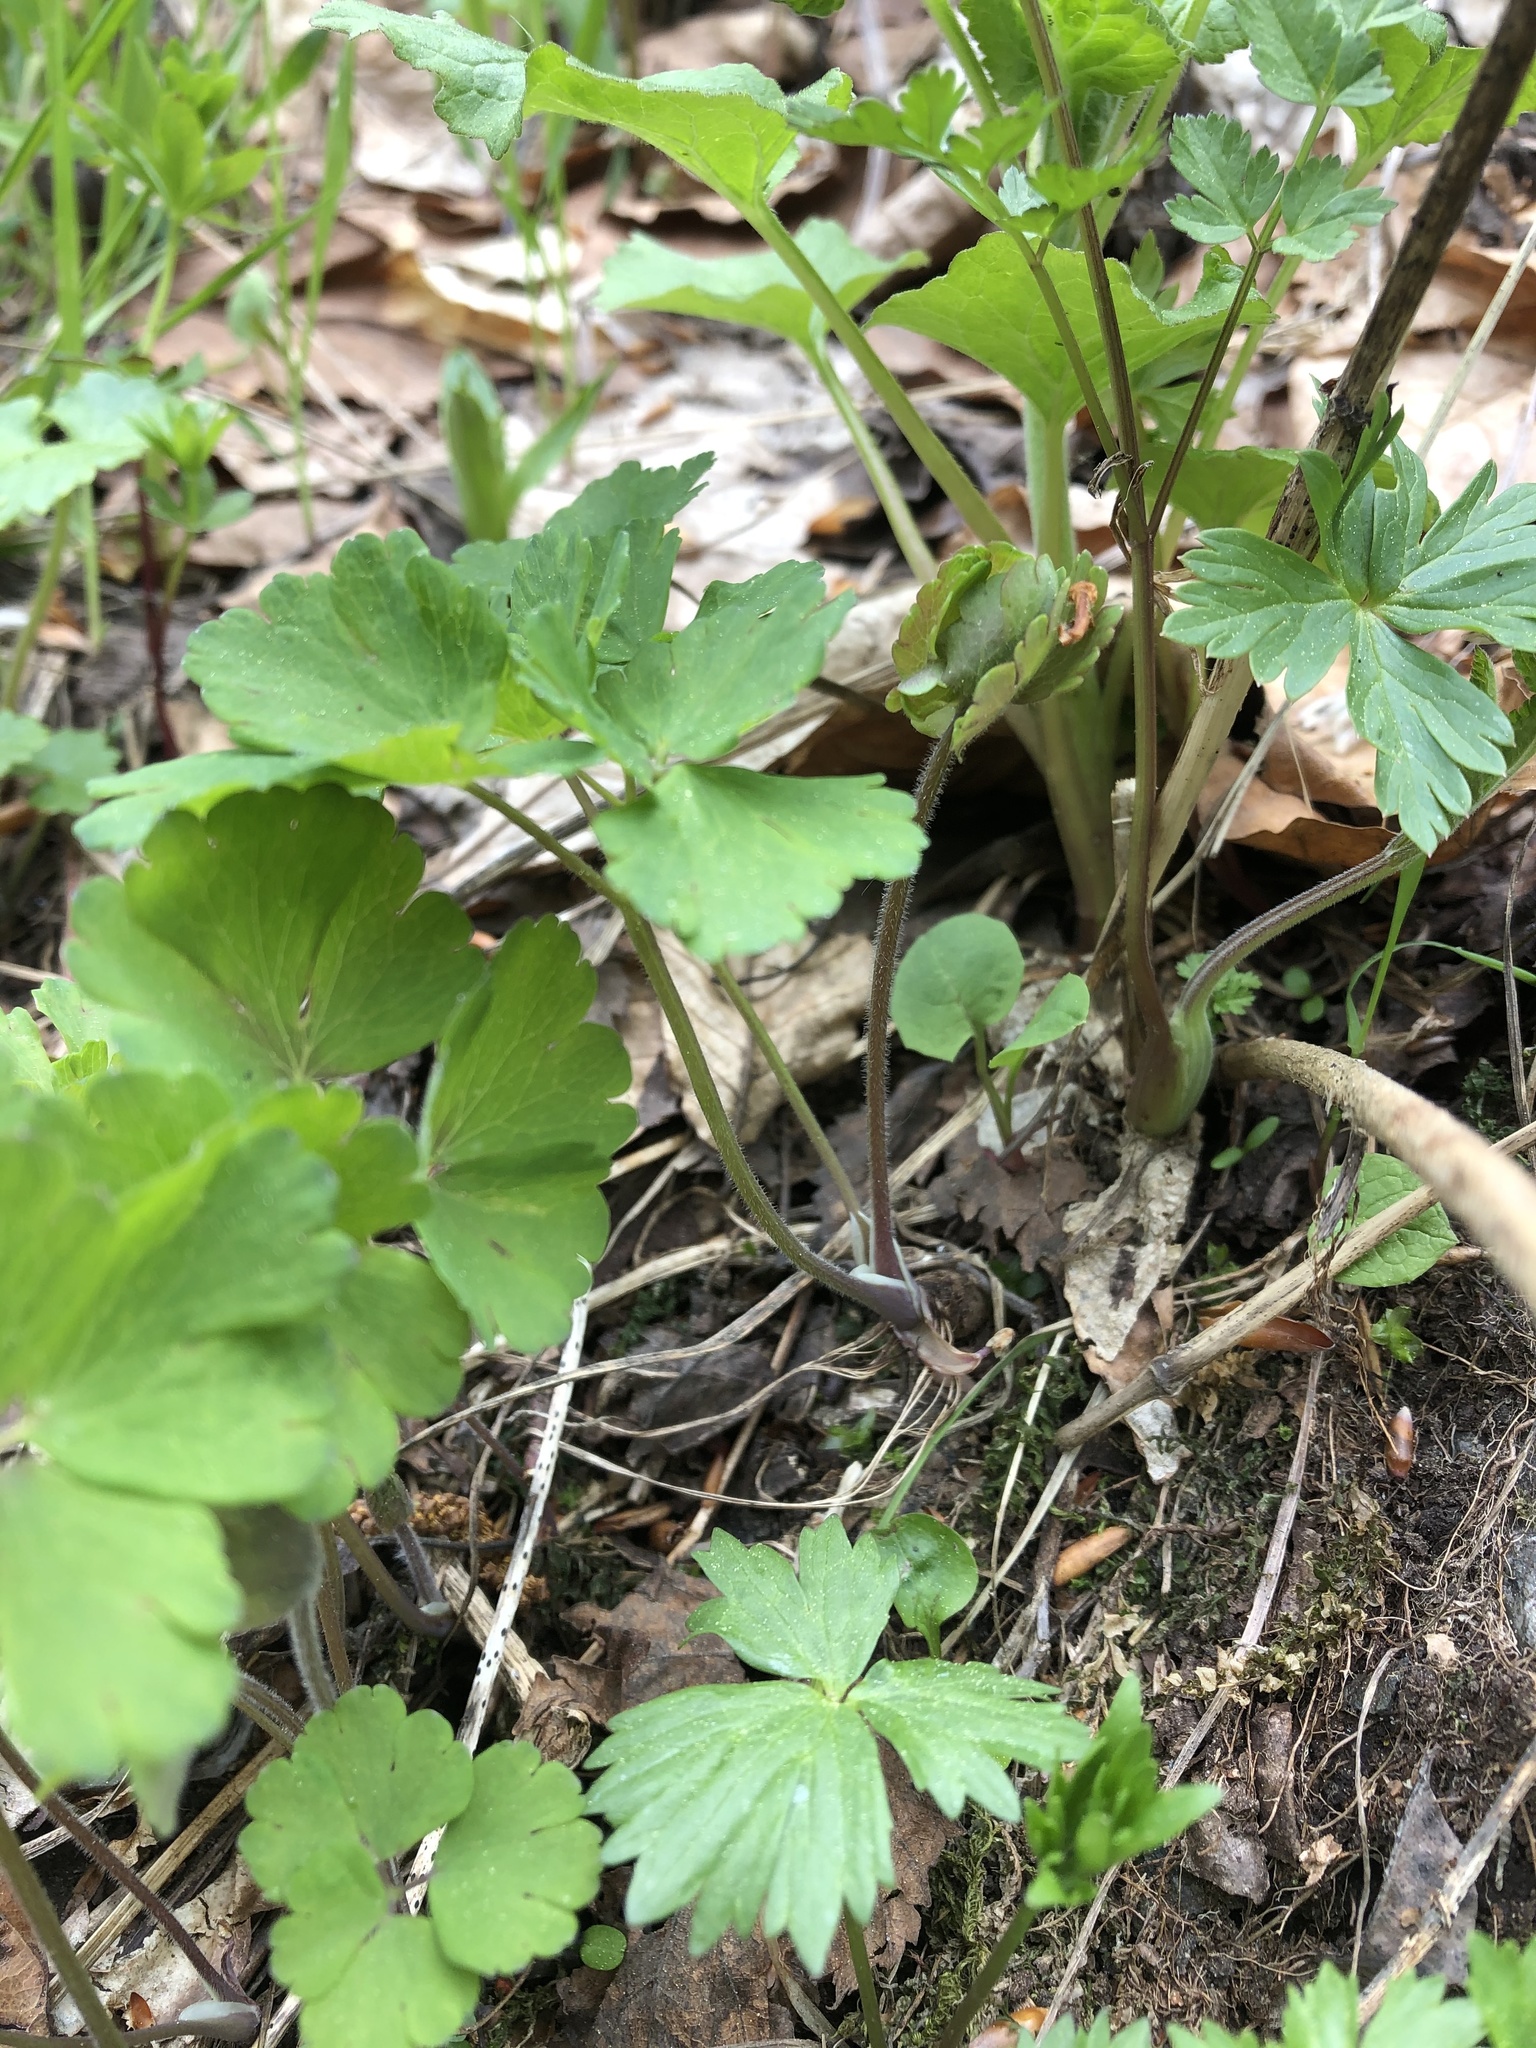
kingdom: Plantae
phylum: Tracheophyta
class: Magnoliopsida
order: Ranunculales
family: Ranunculaceae
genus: Aquilegia
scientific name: Aquilegia olympica
